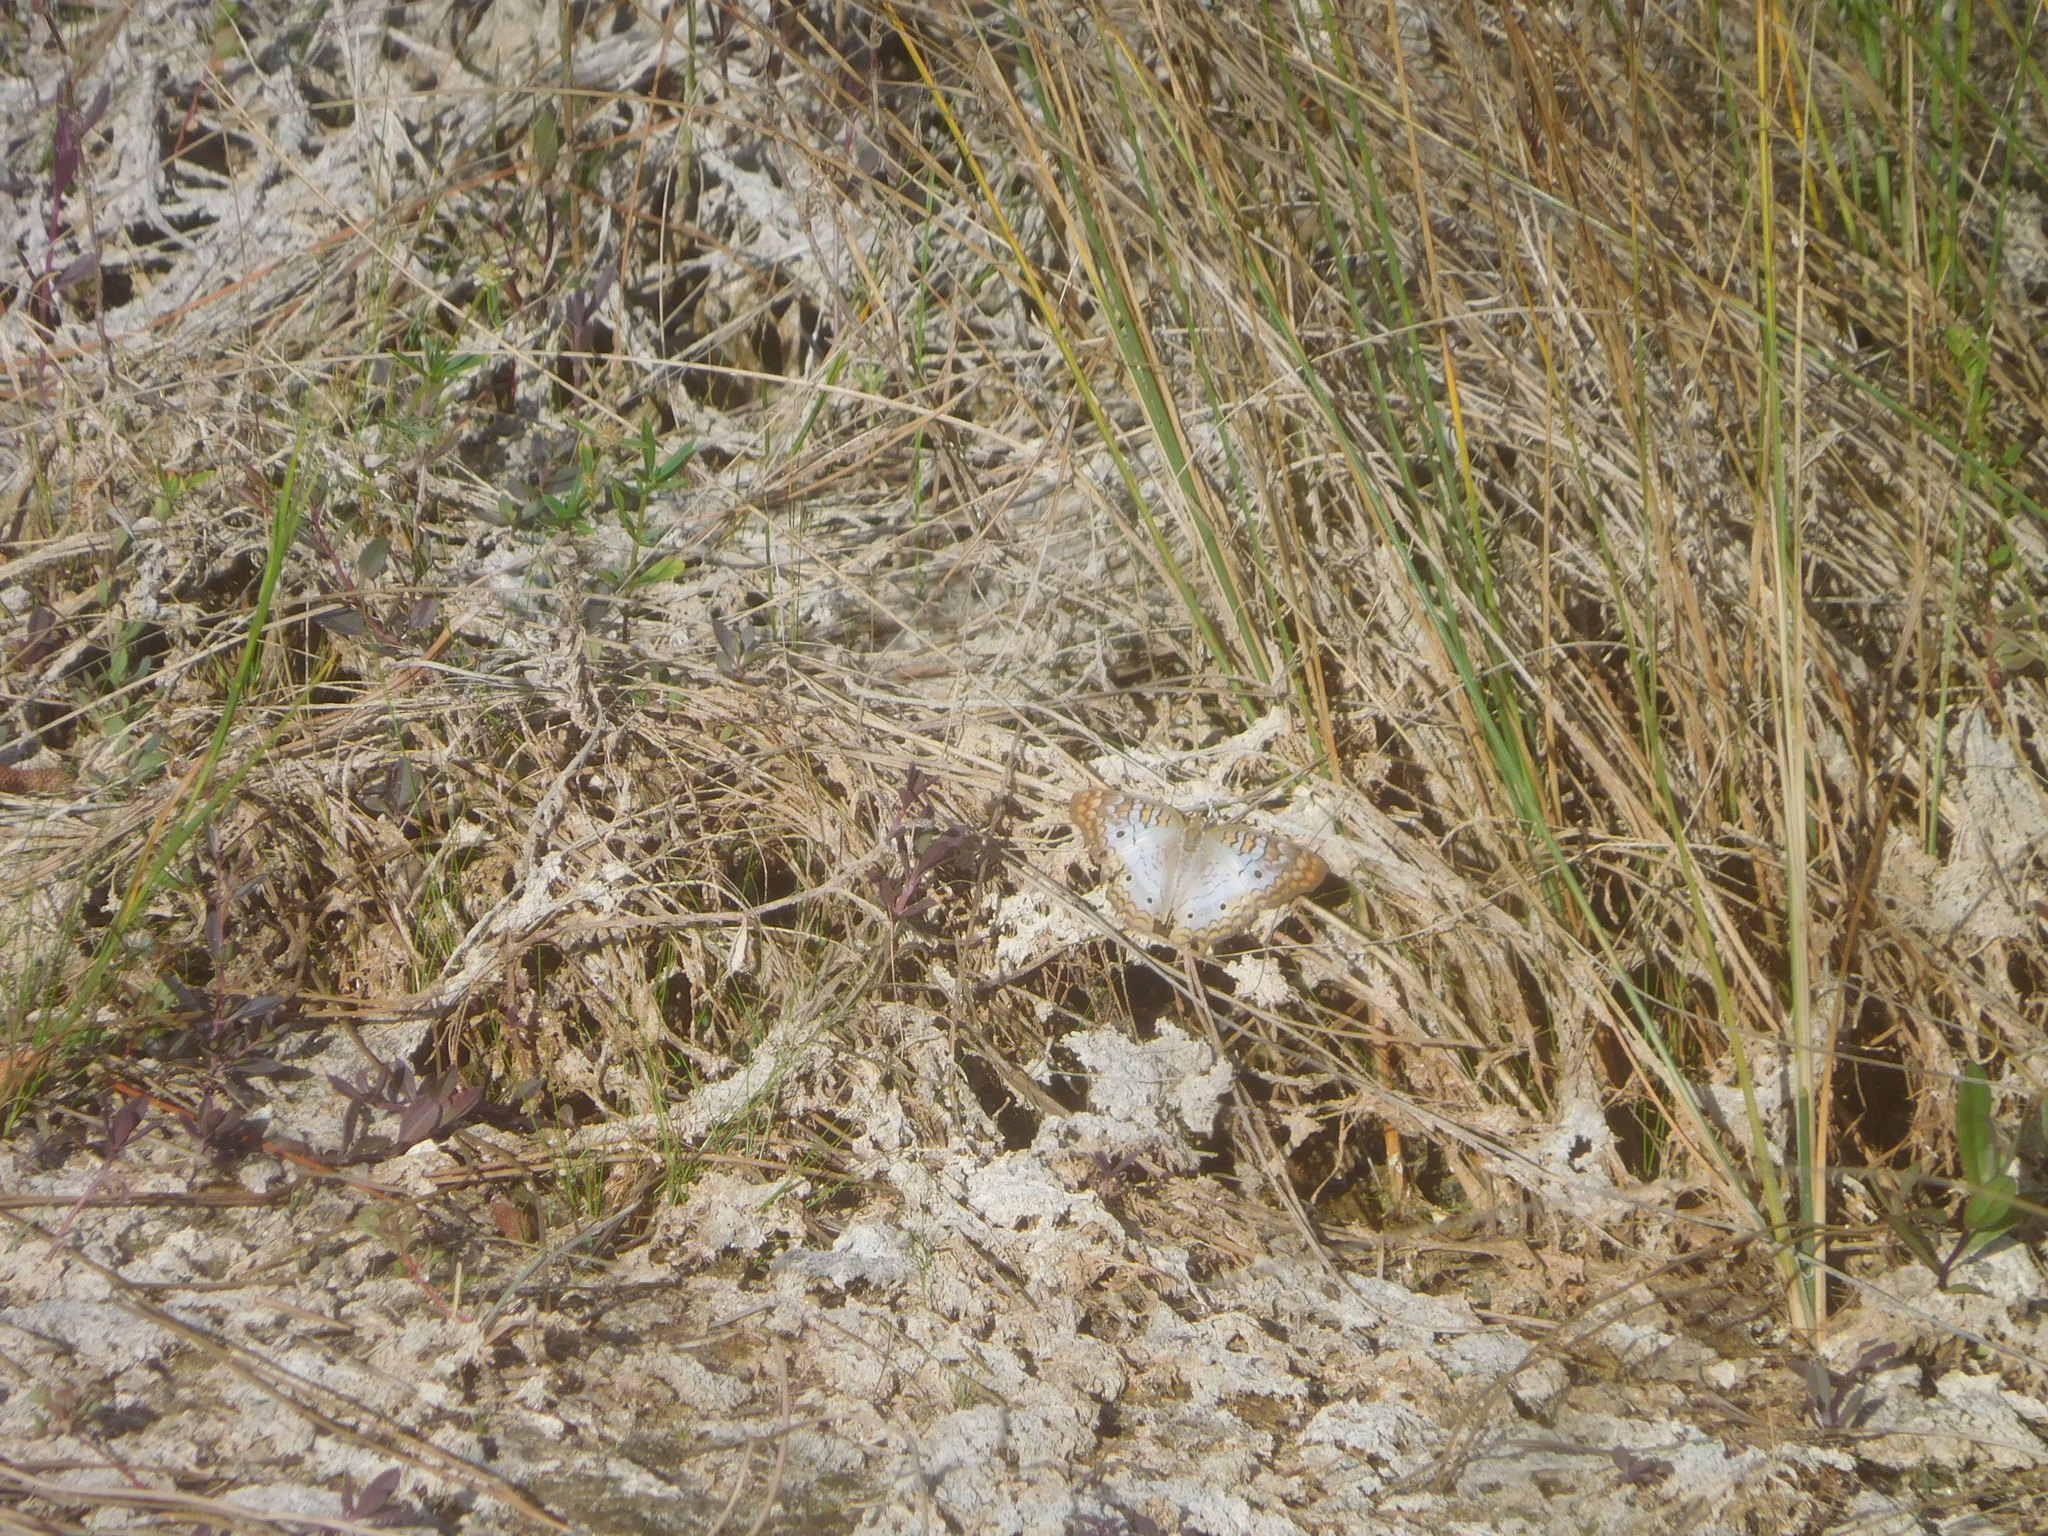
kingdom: Animalia
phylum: Arthropoda
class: Insecta
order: Lepidoptera
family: Nymphalidae
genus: Anartia
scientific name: Anartia jatrophae
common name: White peacock
